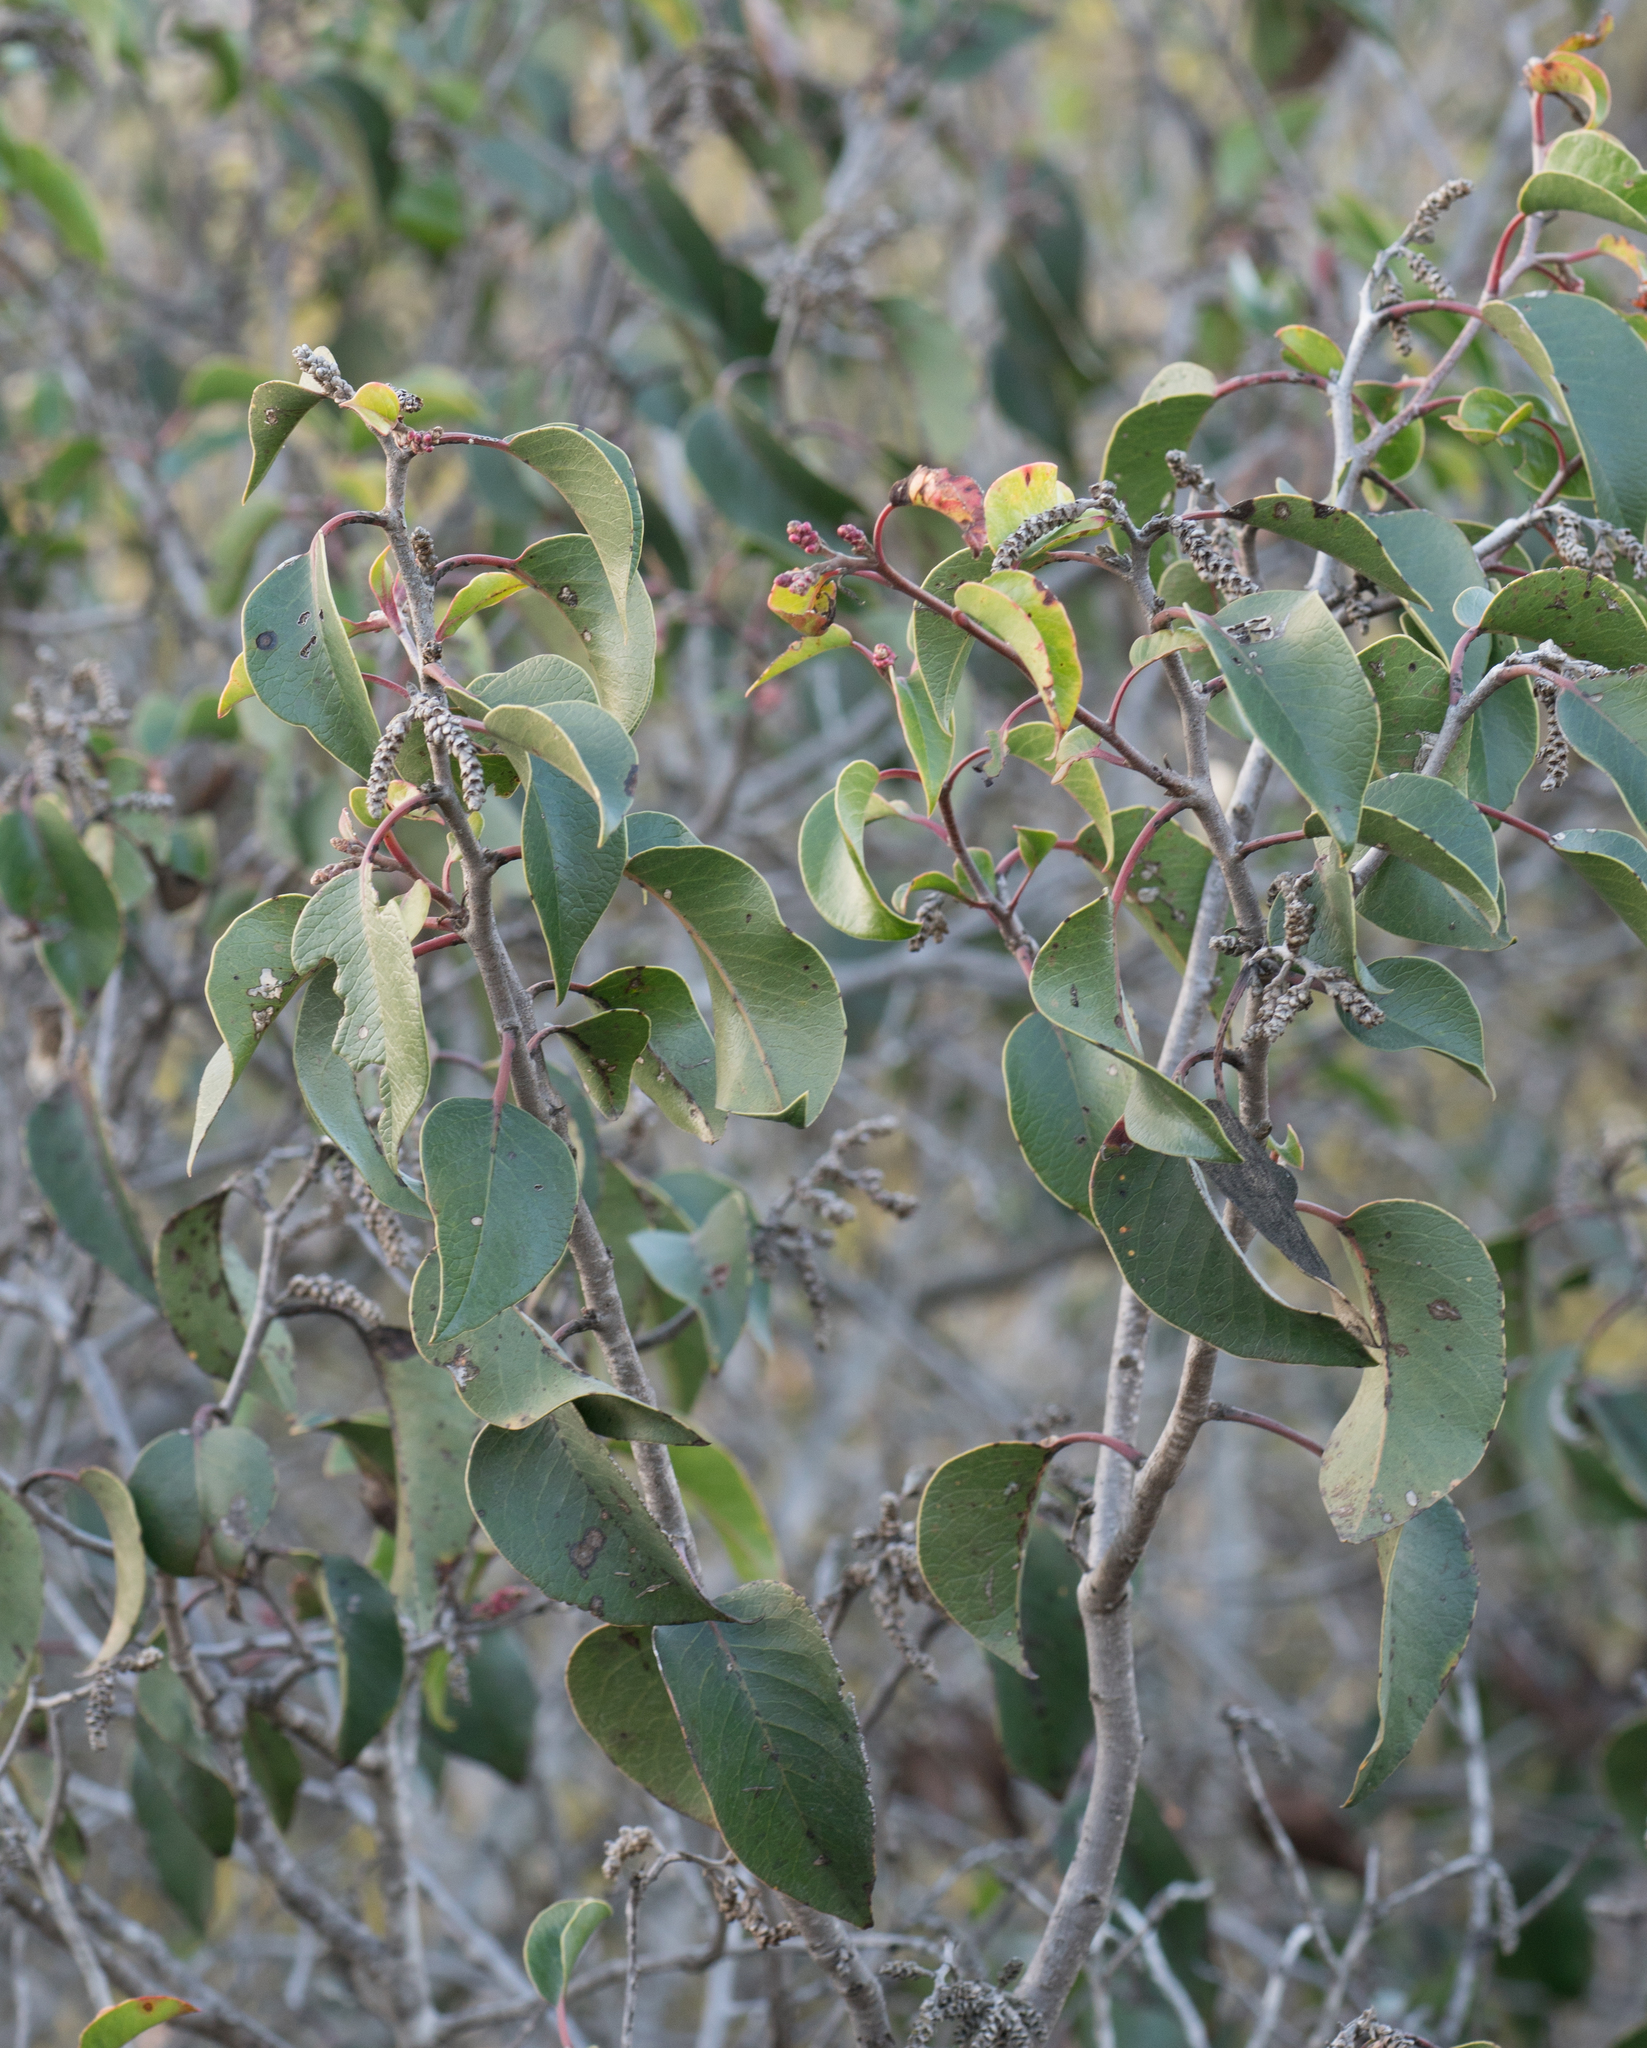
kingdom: Plantae
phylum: Tracheophyta
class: Magnoliopsida
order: Sapindales
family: Anacardiaceae
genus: Rhus
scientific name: Rhus ovata
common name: Sugar sumac
